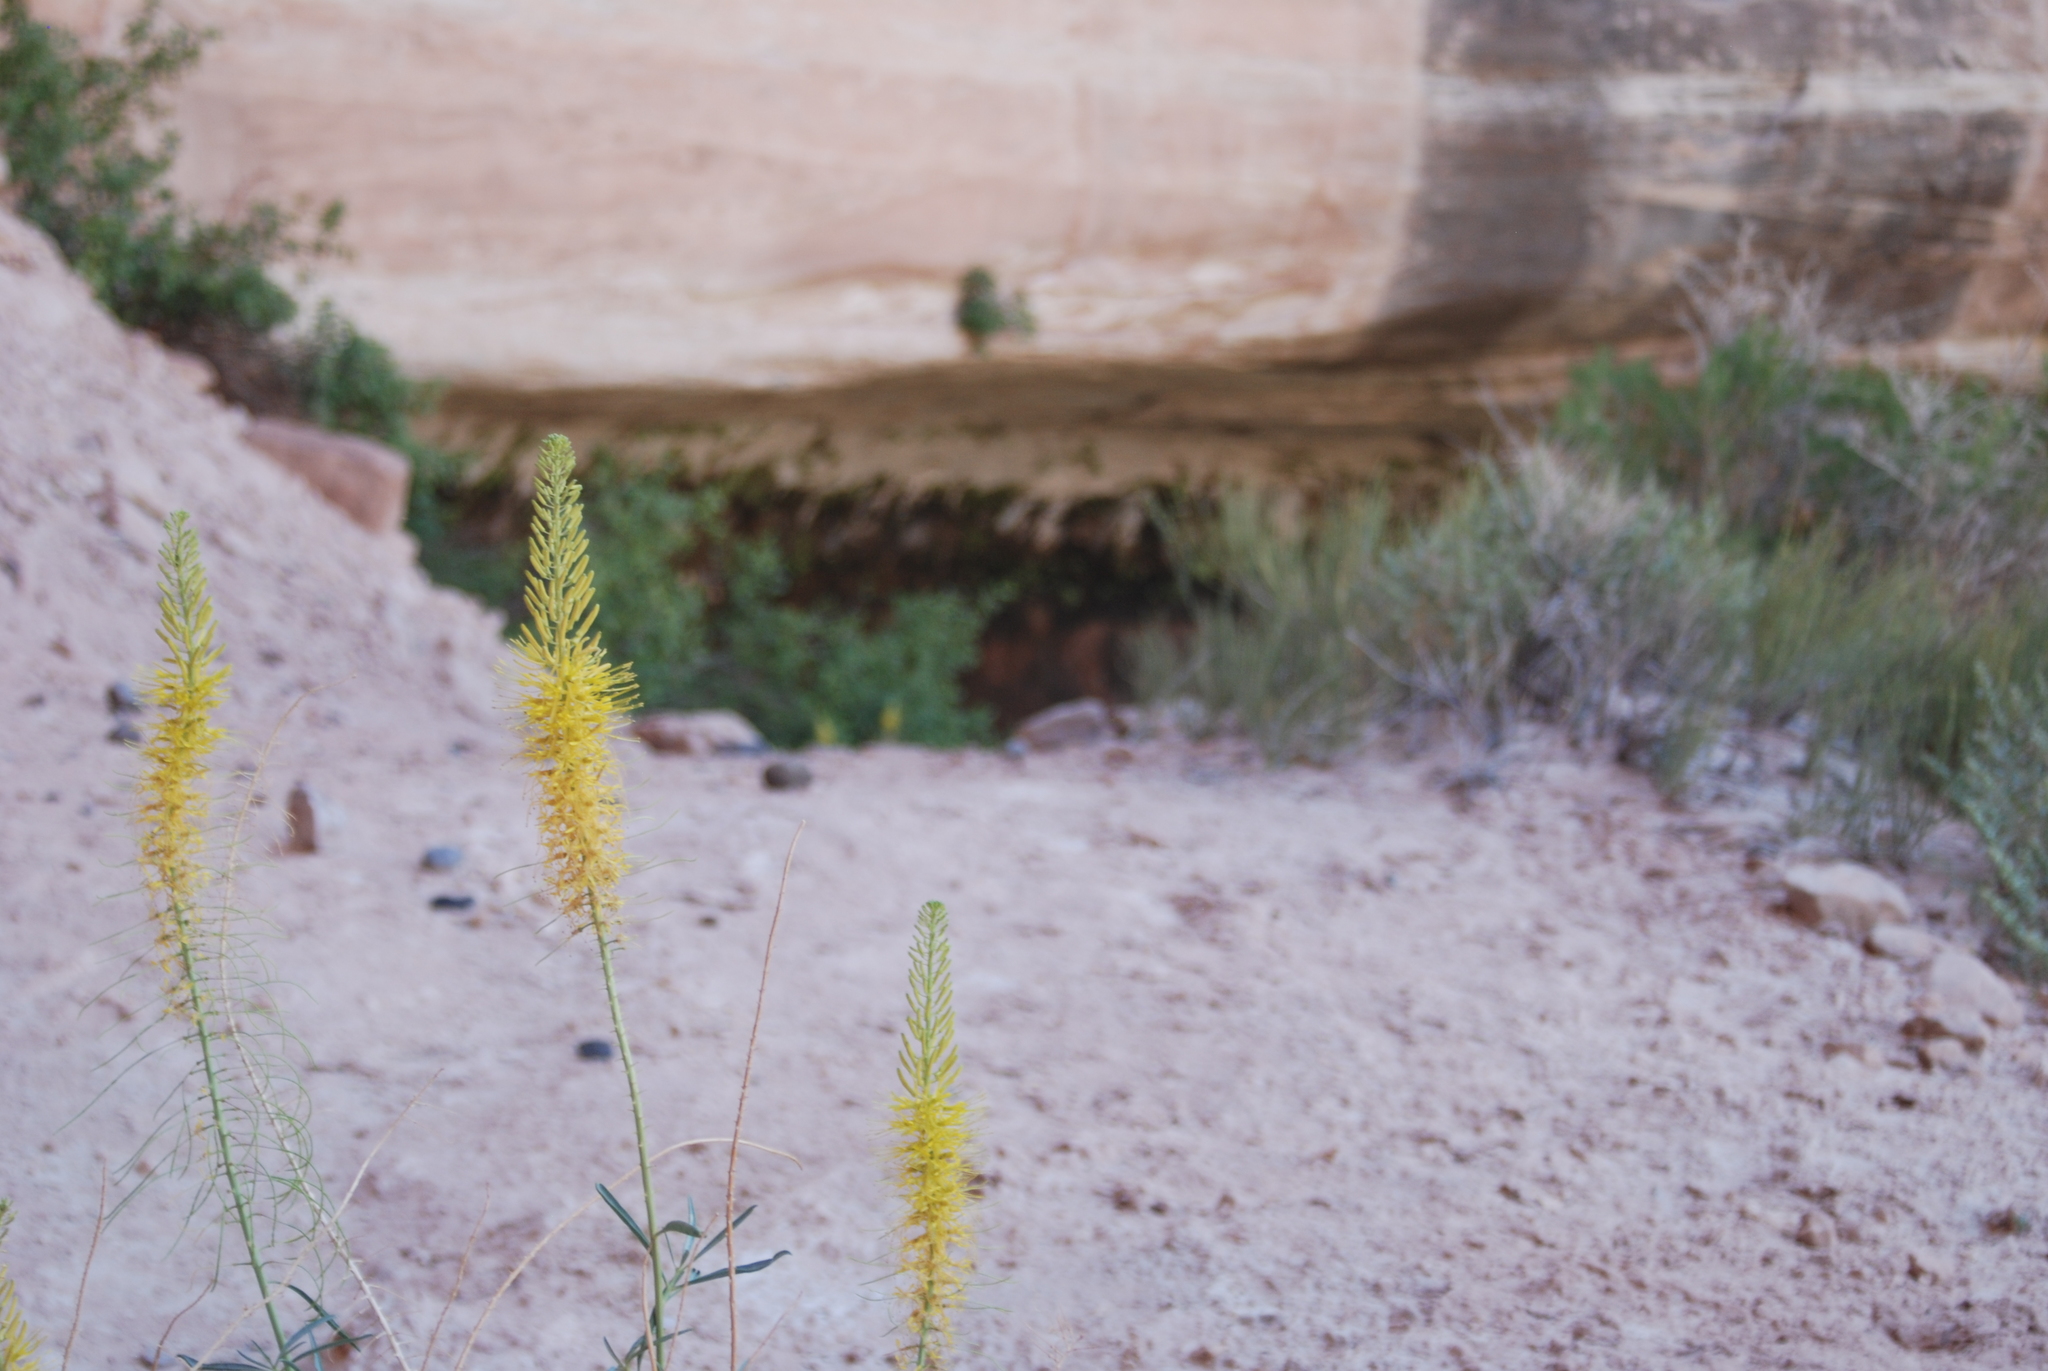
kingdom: Plantae
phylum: Tracheophyta
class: Magnoliopsida
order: Brassicales
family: Brassicaceae
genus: Stanleya
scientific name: Stanleya pinnata
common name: Prince's-plume
